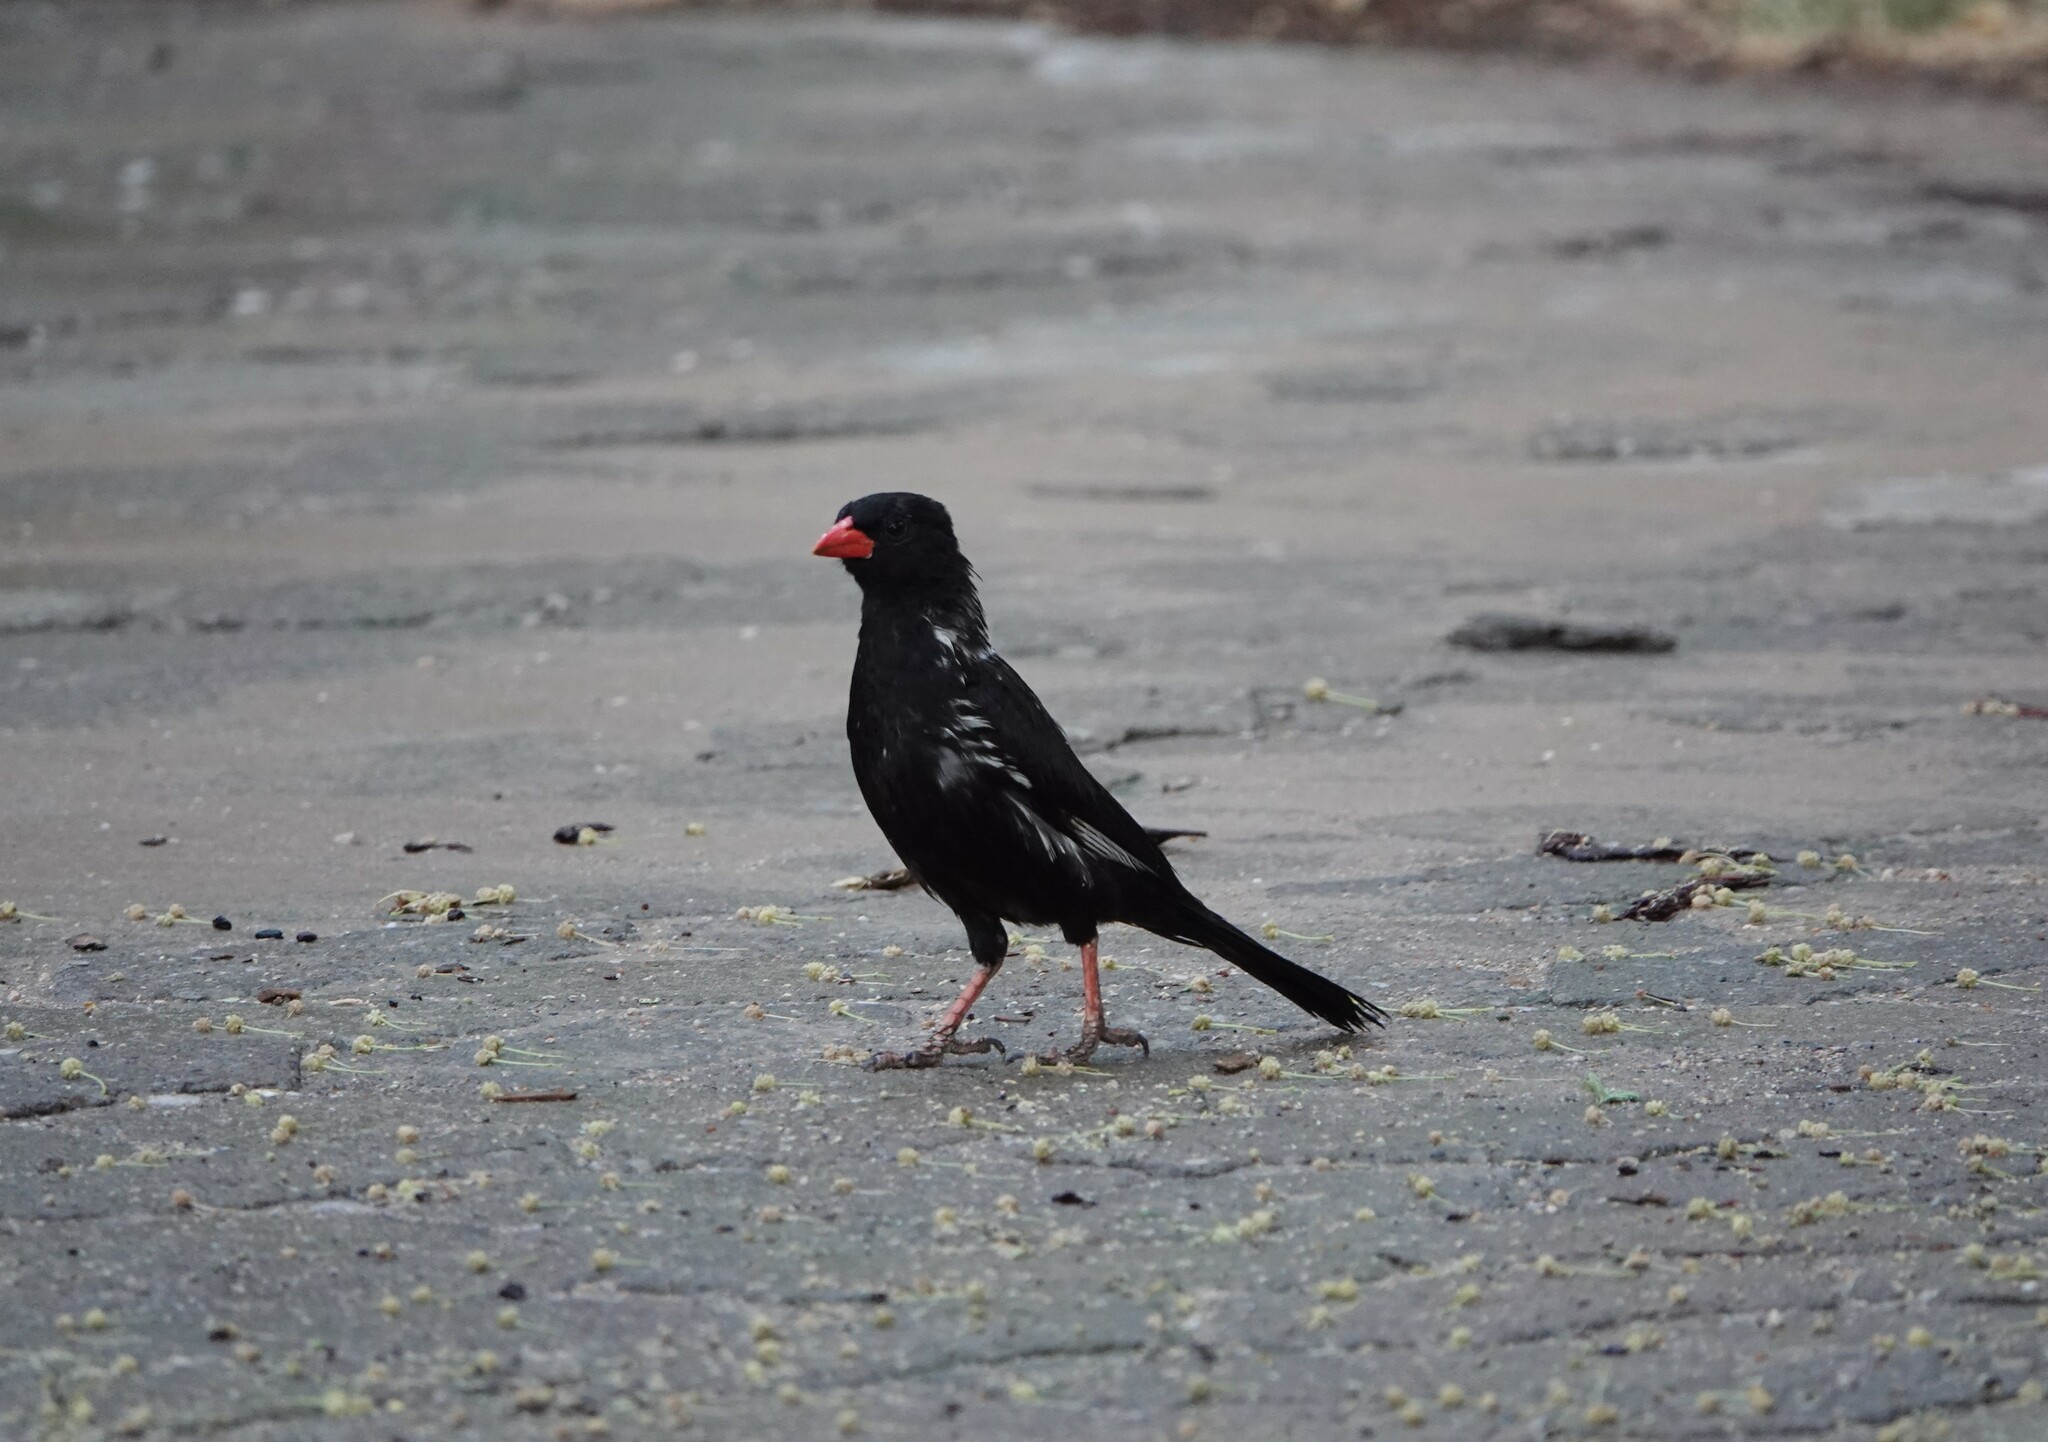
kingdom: Animalia
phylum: Chordata
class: Aves
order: Passeriformes
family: Ploceidae
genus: Bubalornis
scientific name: Bubalornis niger
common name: Red-billed buffalo weaver
